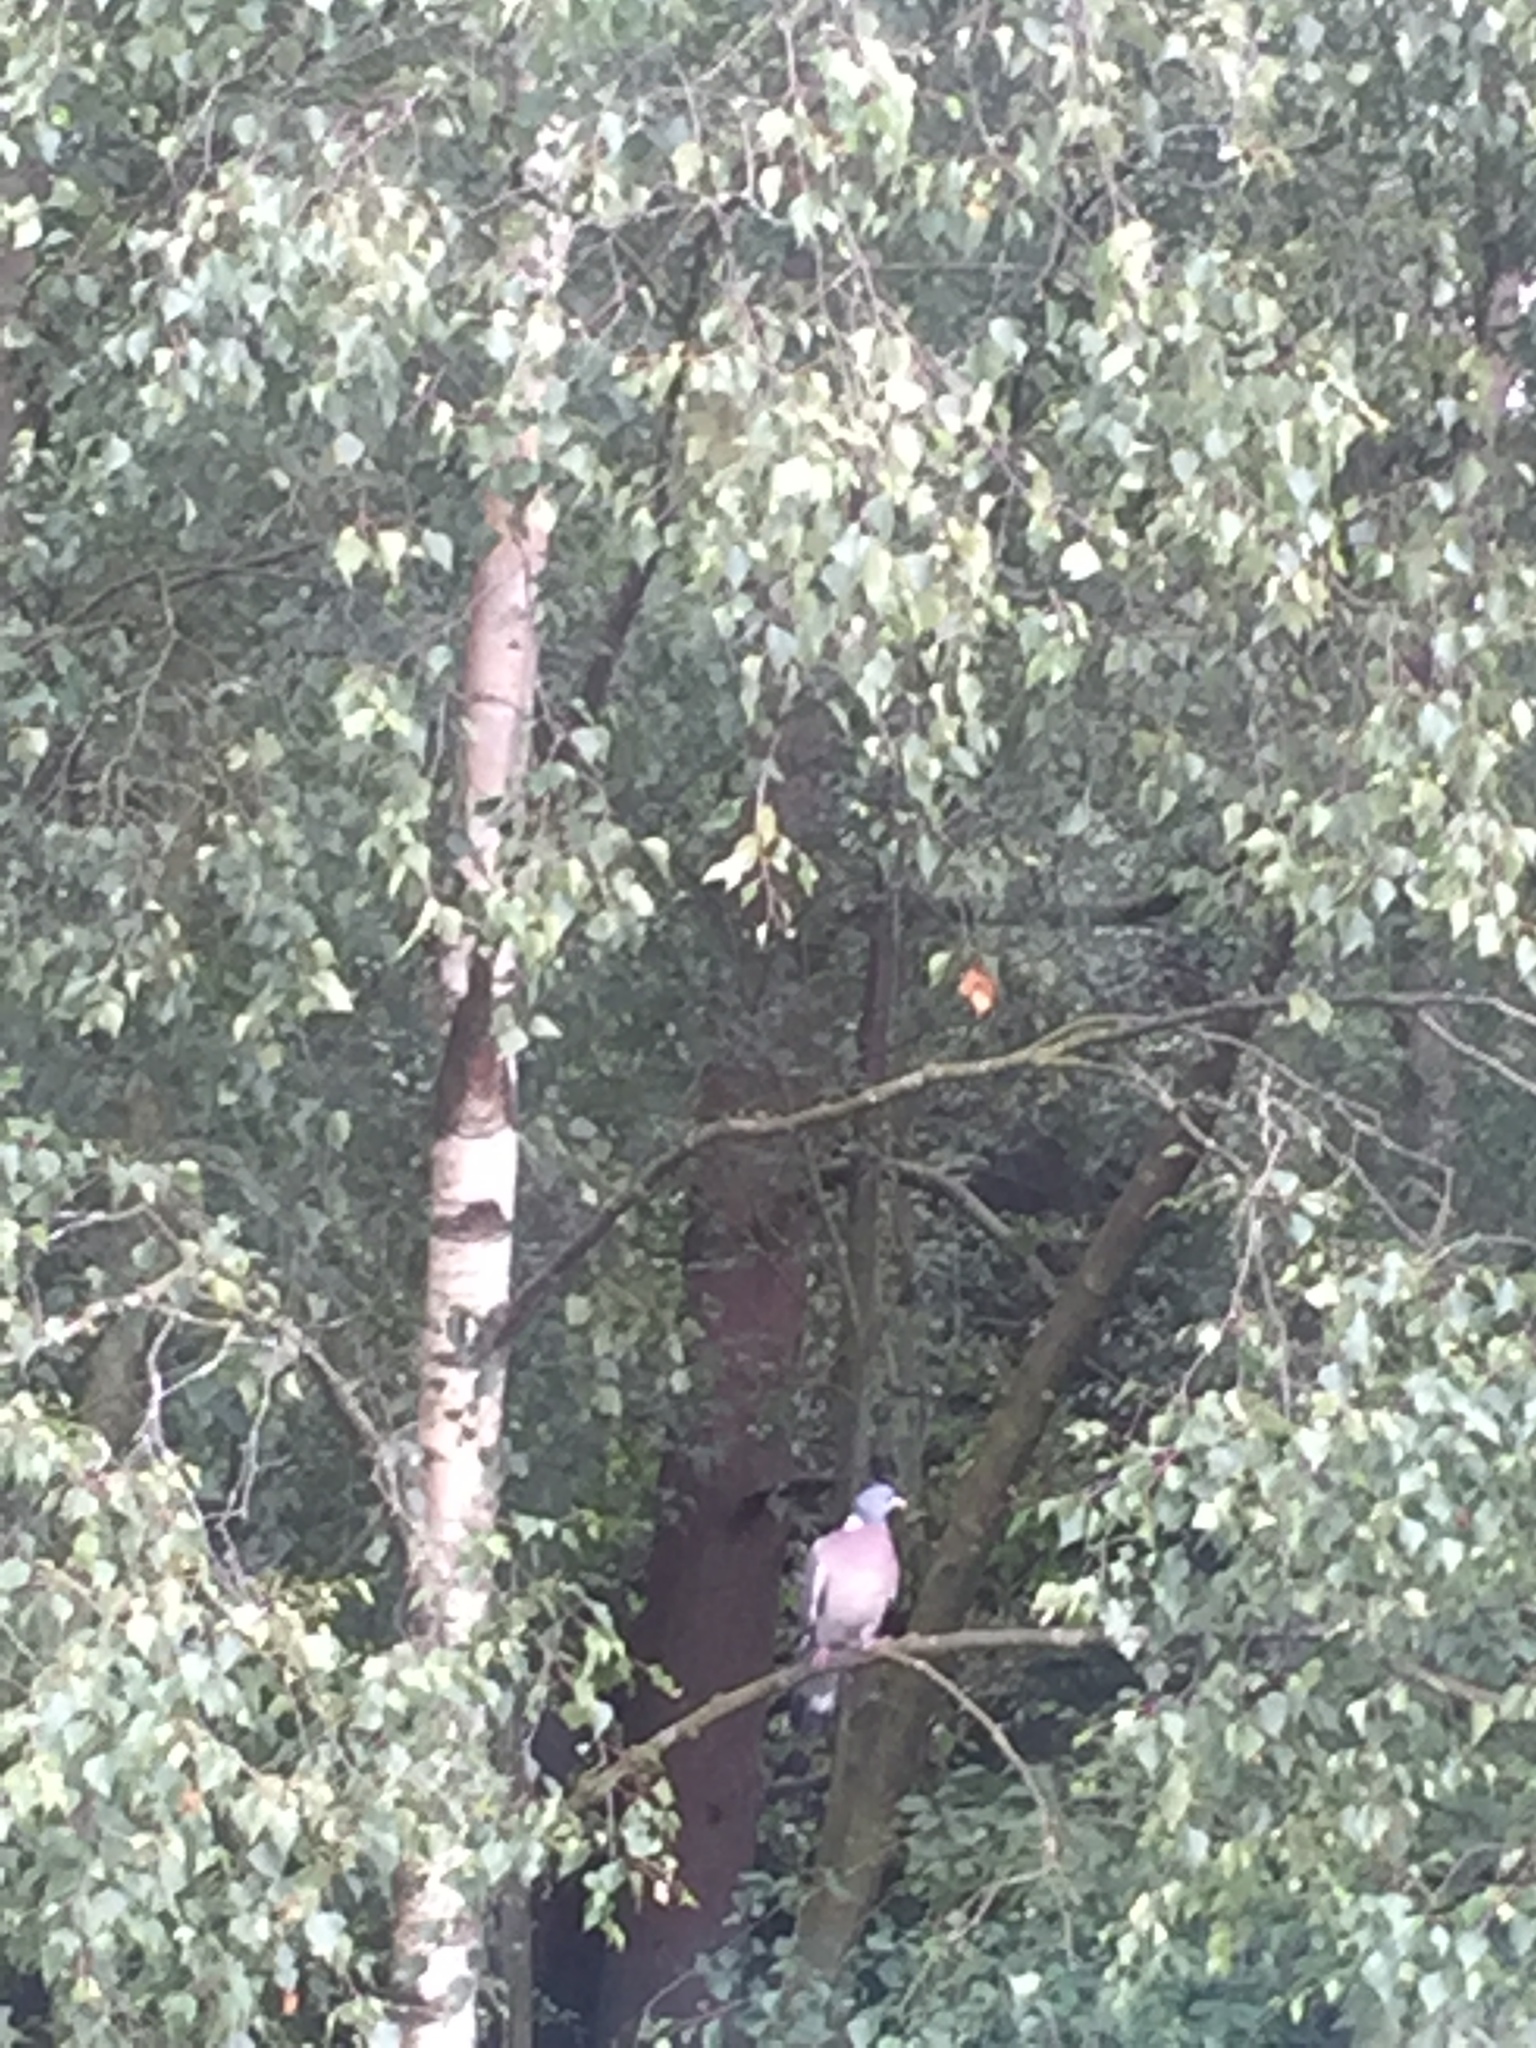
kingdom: Animalia
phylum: Chordata
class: Aves
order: Columbiformes
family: Columbidae
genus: Columba
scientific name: Columba palumbus
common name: Common wood pigeon
